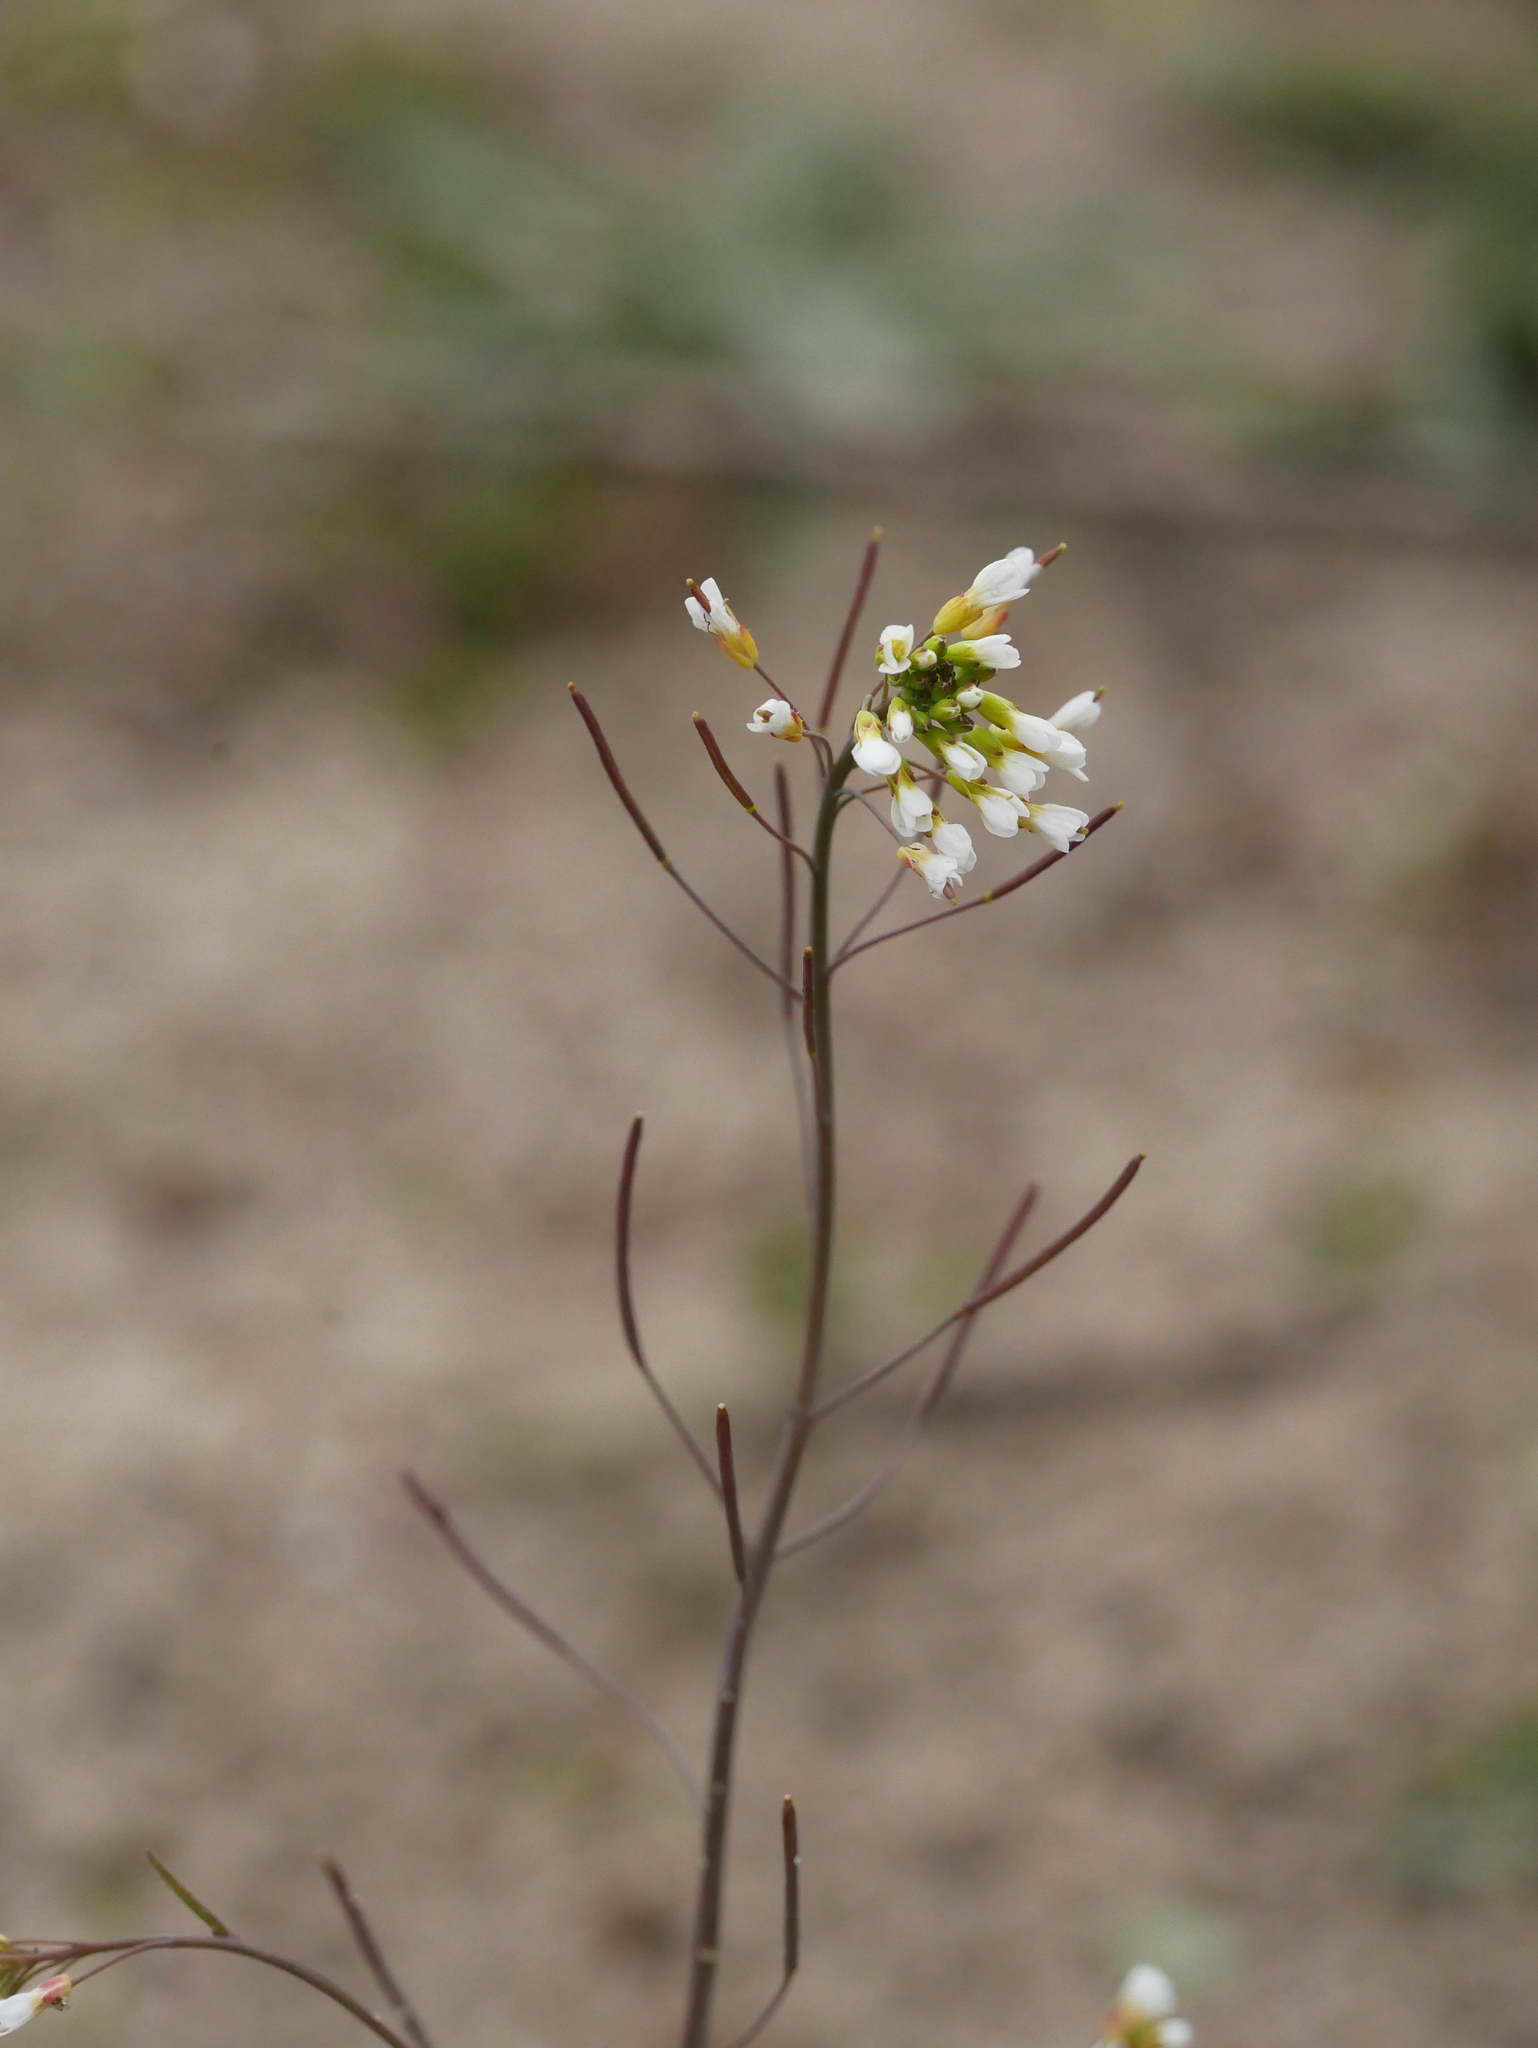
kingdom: Plantae
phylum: Tracheophyta
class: Magnoliopsida
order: Brassicales
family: Brassicaceae
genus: Arabidopsis
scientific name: Arabidopsis thaliana
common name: Thale cress
